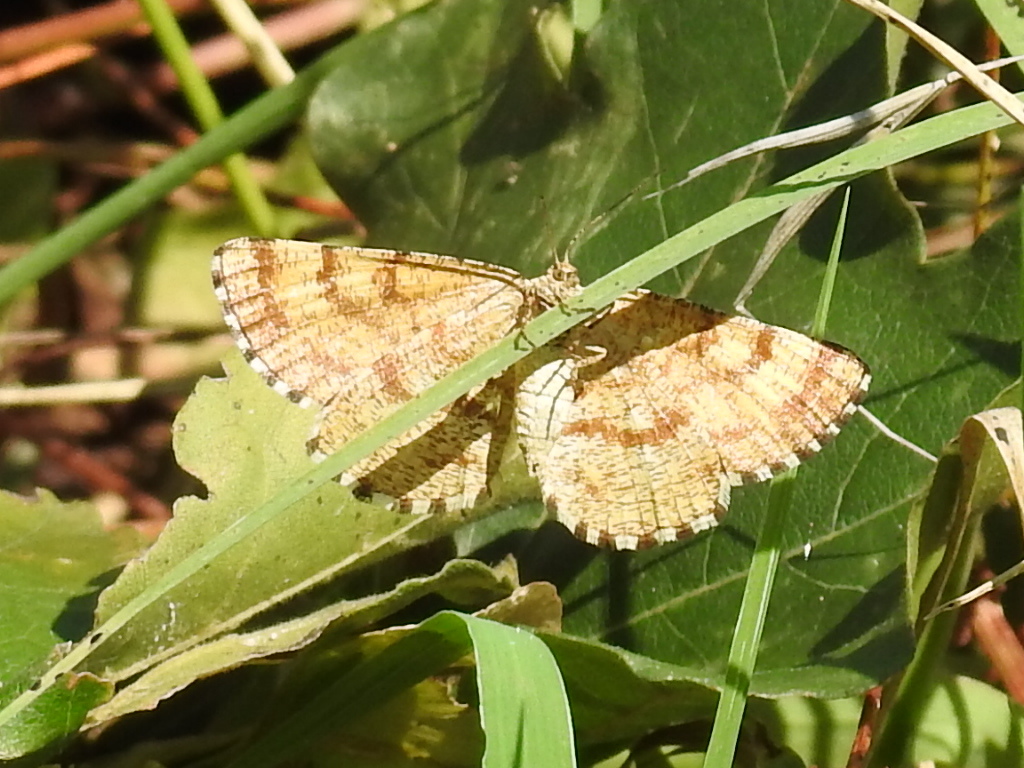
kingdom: Animalia
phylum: Arthropoda
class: Insecta
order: Lepidoptera
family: Geometridae
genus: Ematurga
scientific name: Ematurga atomaria
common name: Common heath
